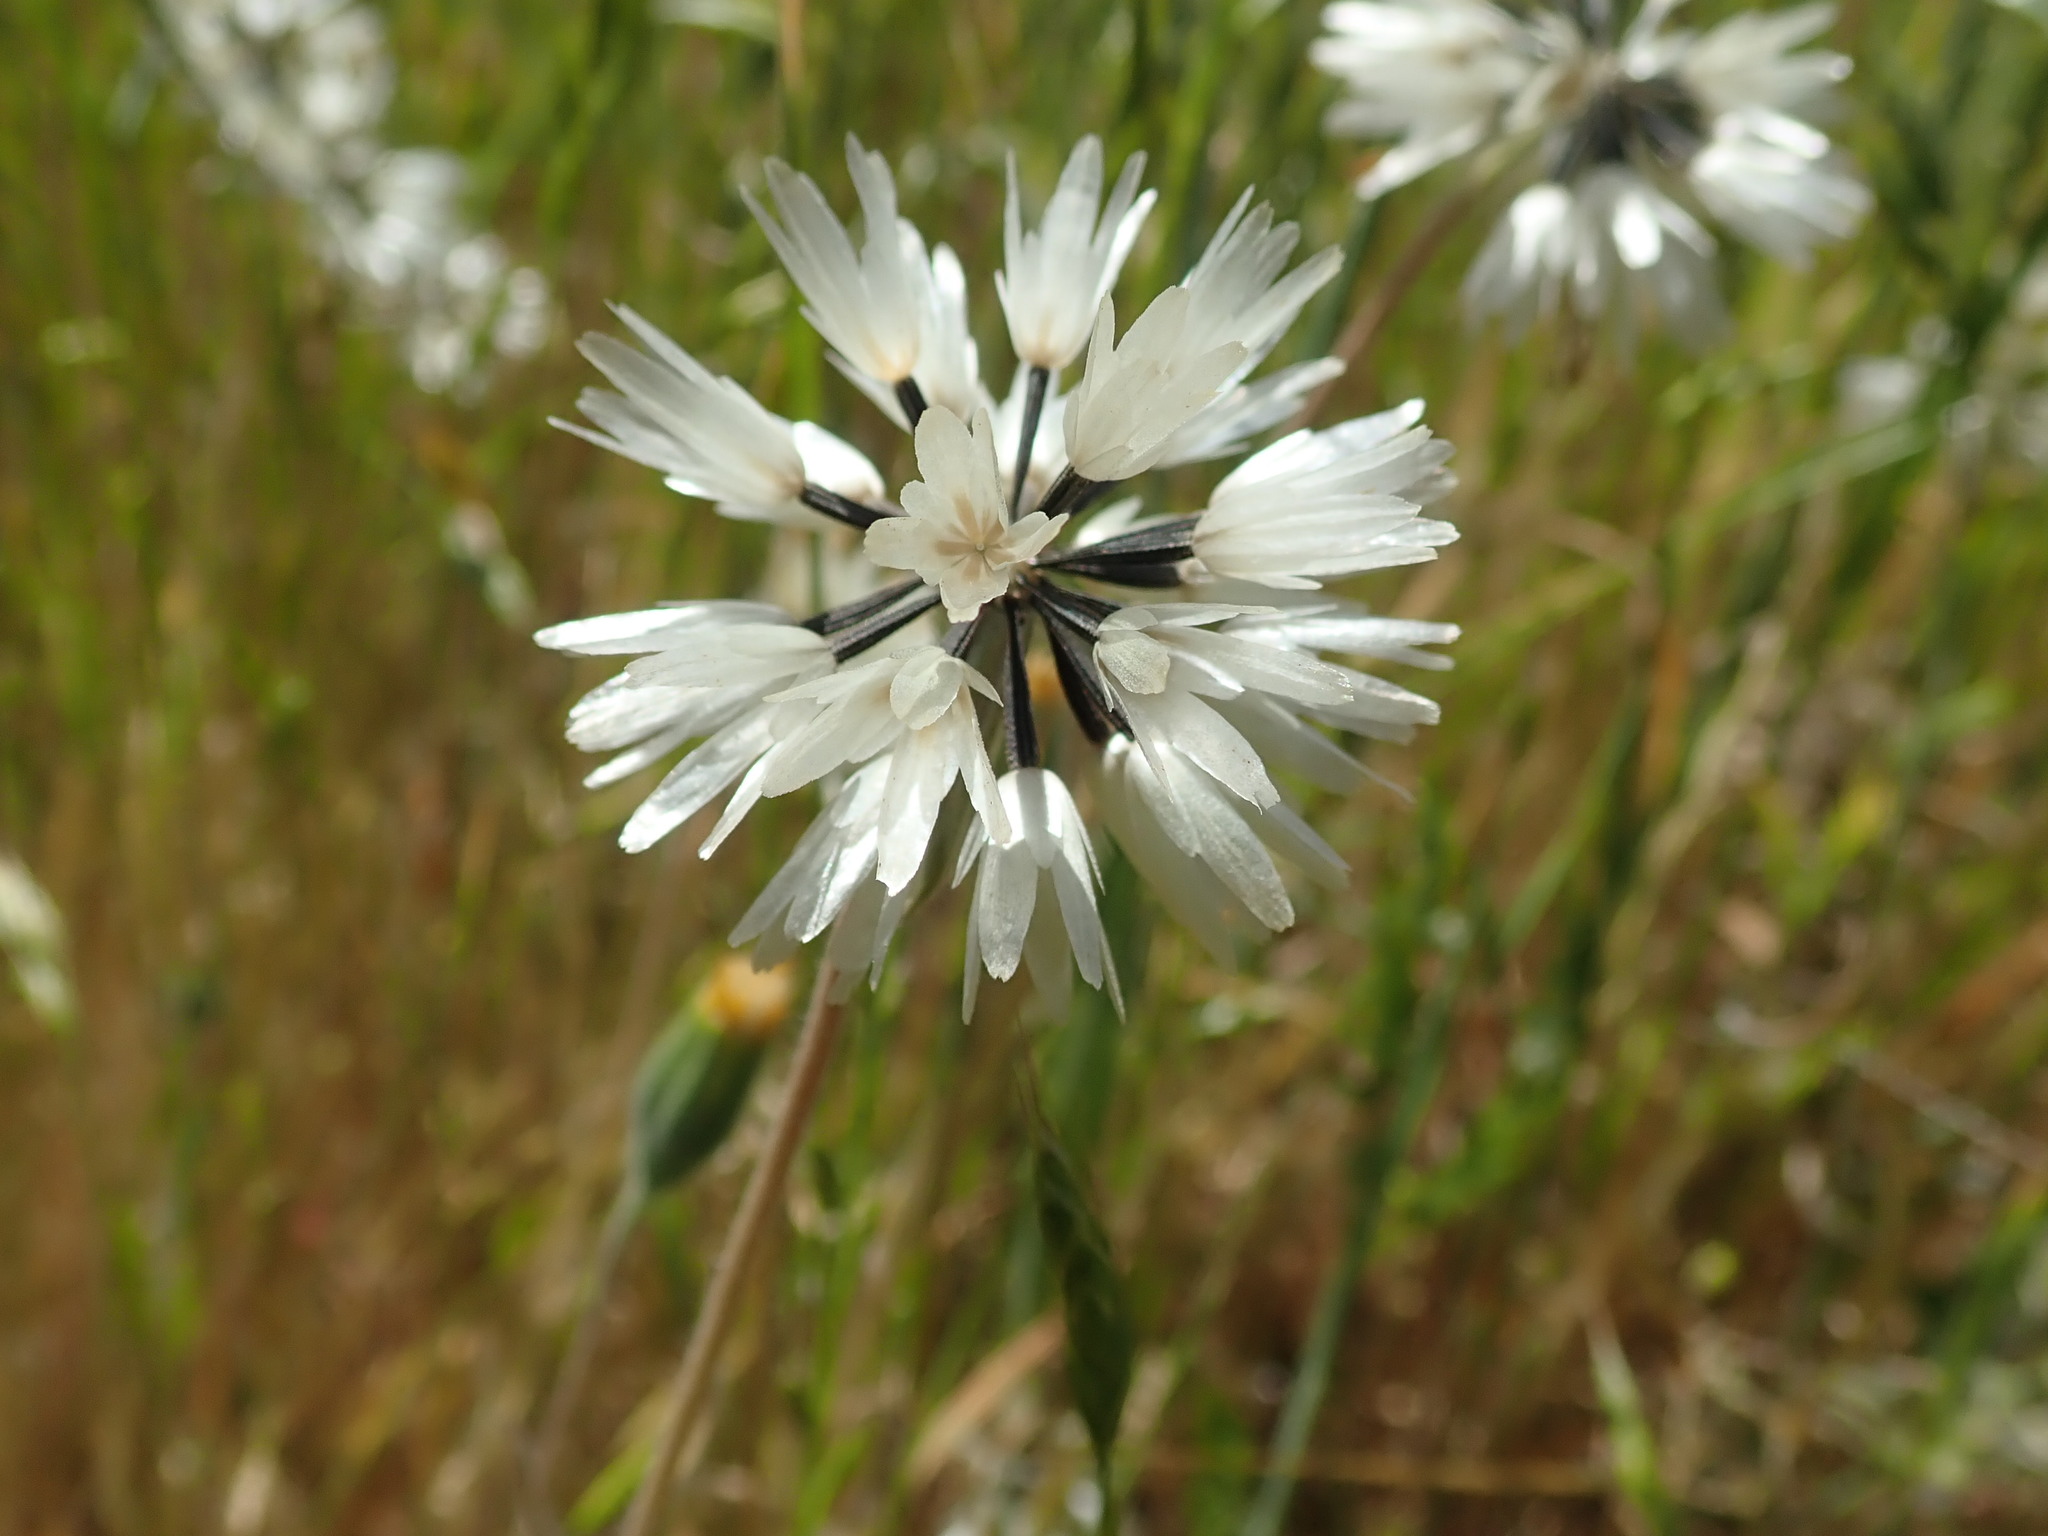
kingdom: Plantae
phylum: Tracheophyta
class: Magnoliopsida
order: Asterales
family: Asteraceae
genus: Achyrachaena
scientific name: Achyrachaena mollis
